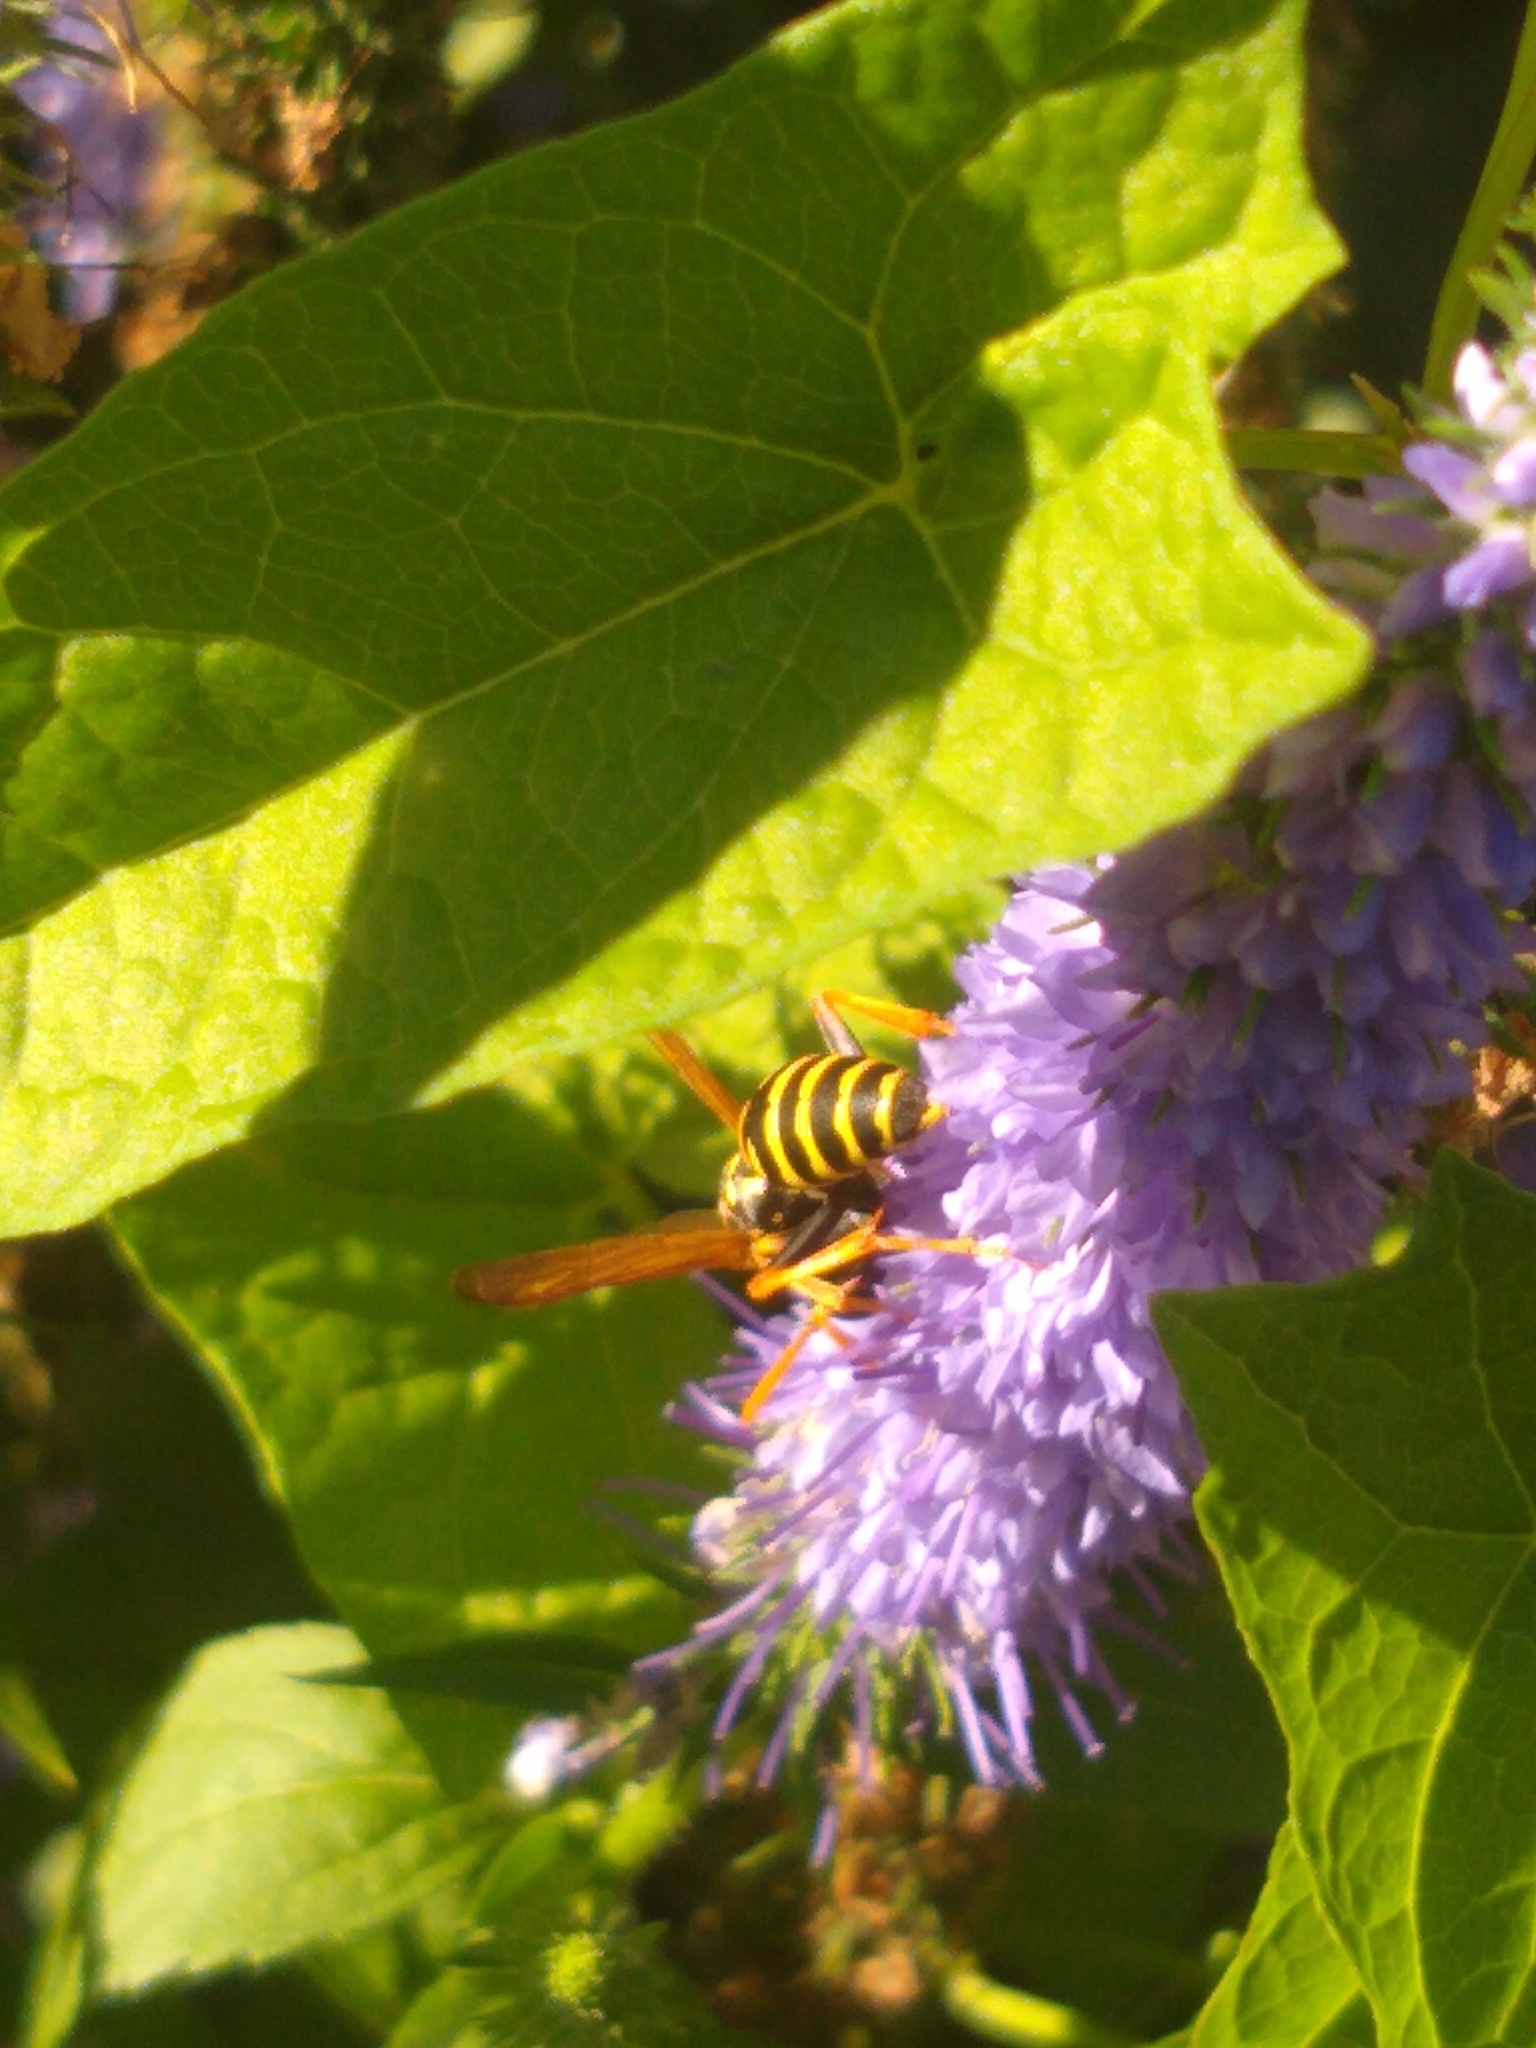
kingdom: Animalia
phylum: Arthropoda
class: Insecta
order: Hymenoptera
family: Eumenidae
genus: Polistes
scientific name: Polistes dominula
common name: Paper wasp
